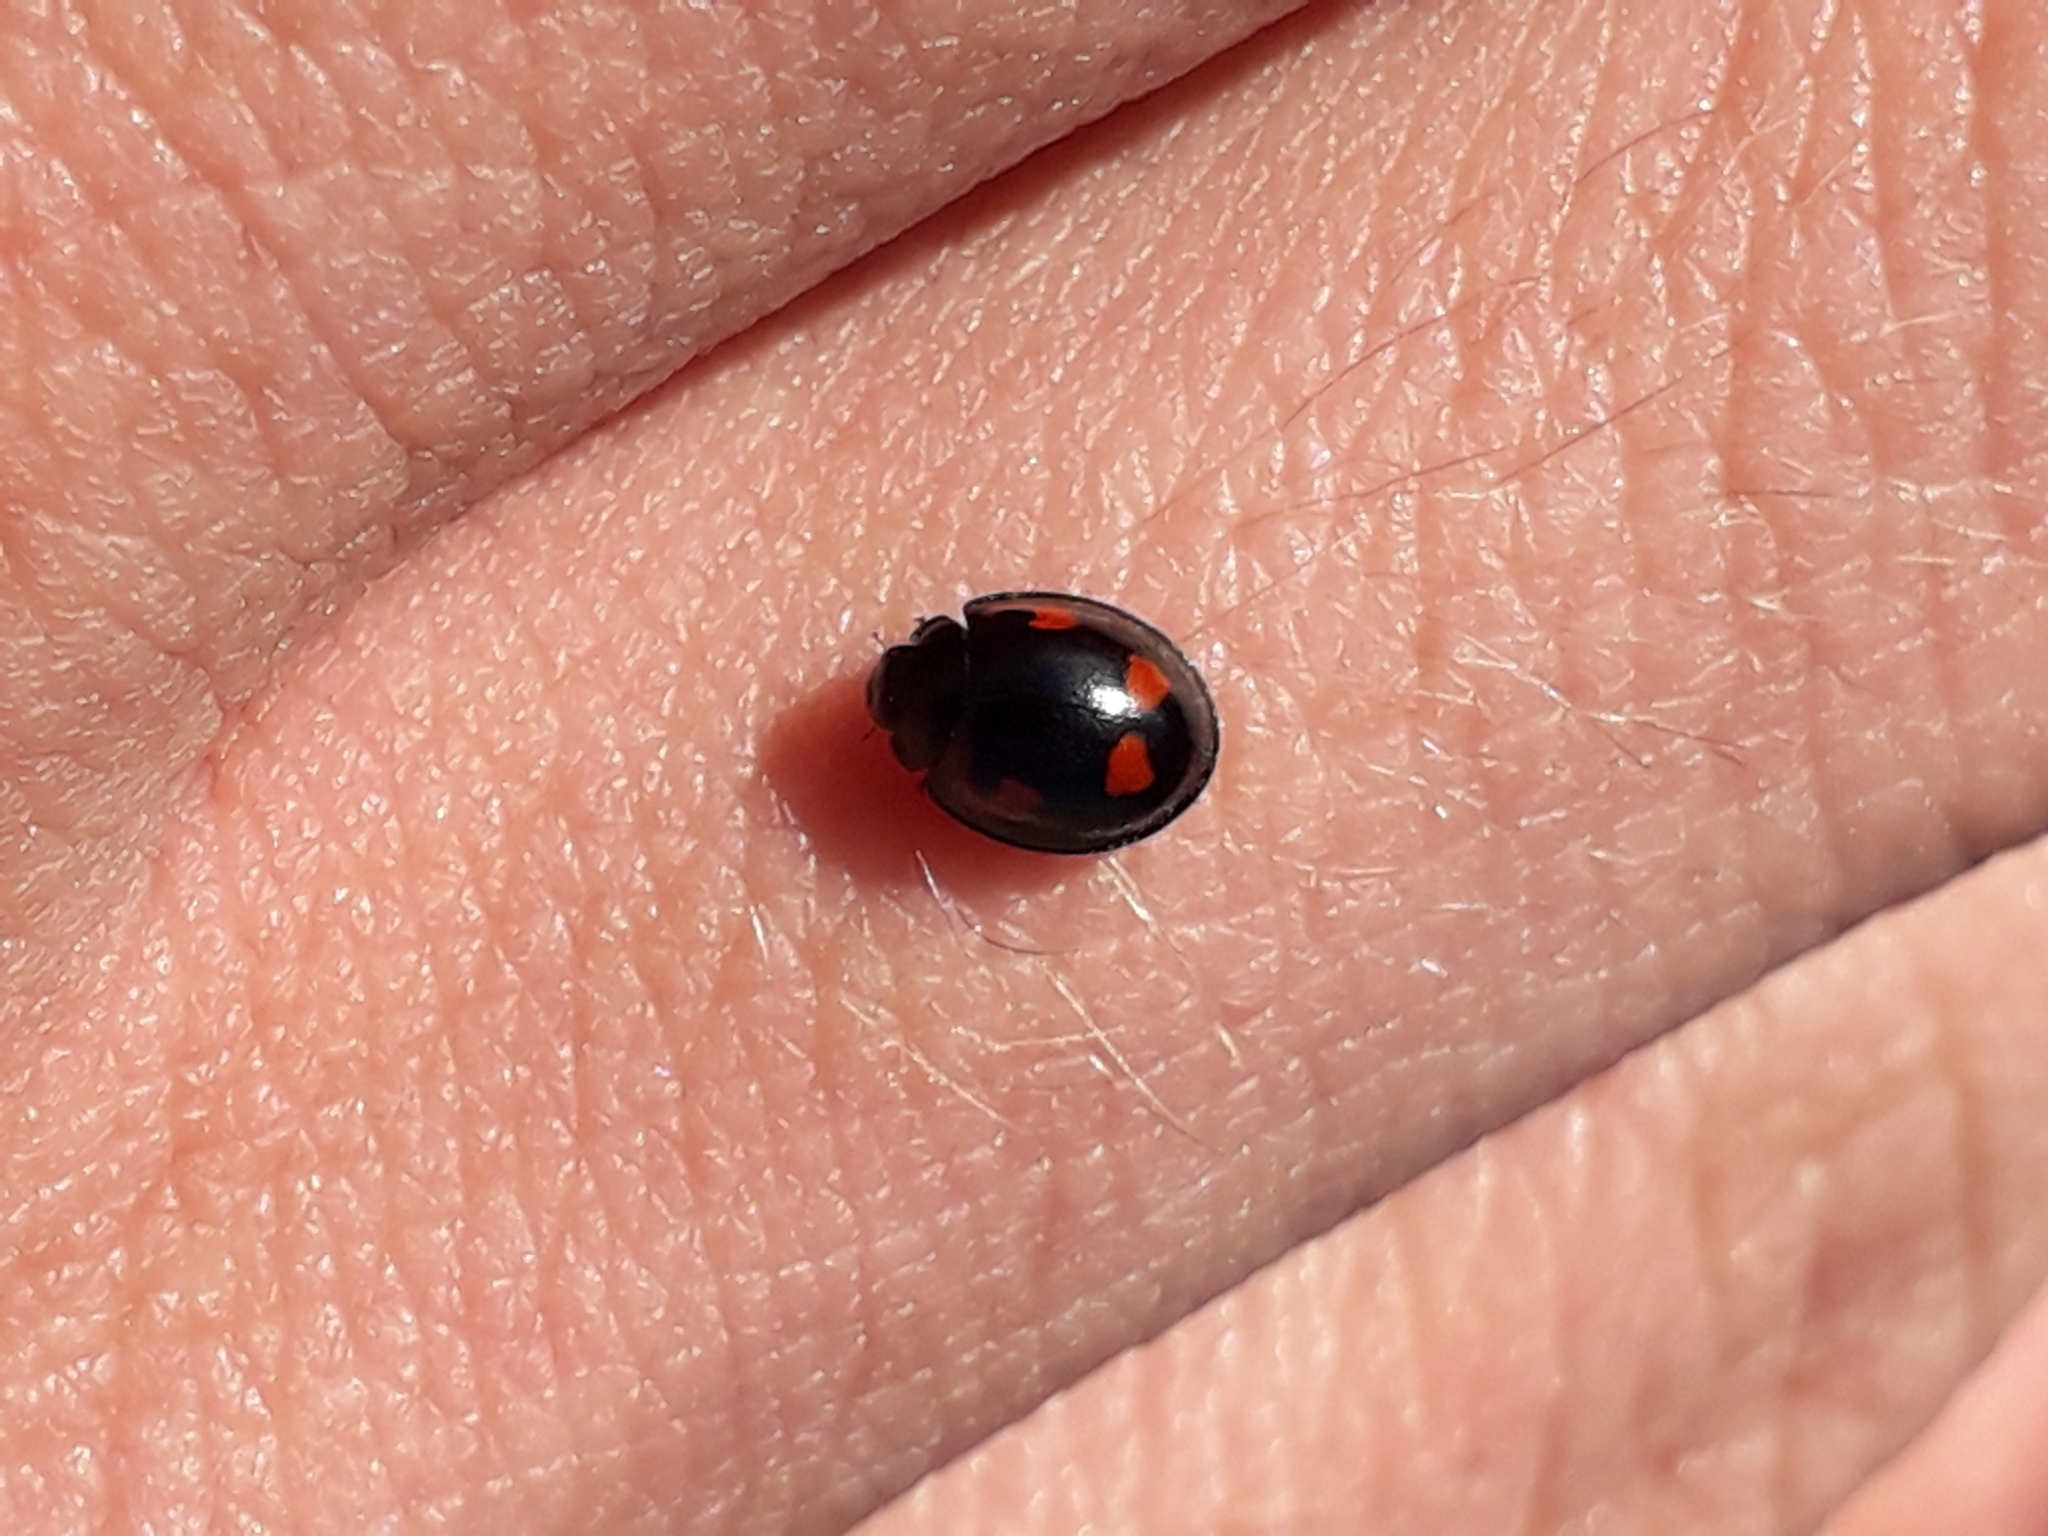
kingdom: Animalia
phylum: Arthropoda
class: Insecta
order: Coleoptera
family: Coccinellidae
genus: Brumus
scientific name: Brumus quadripustulatus
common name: Ladybird beetle
